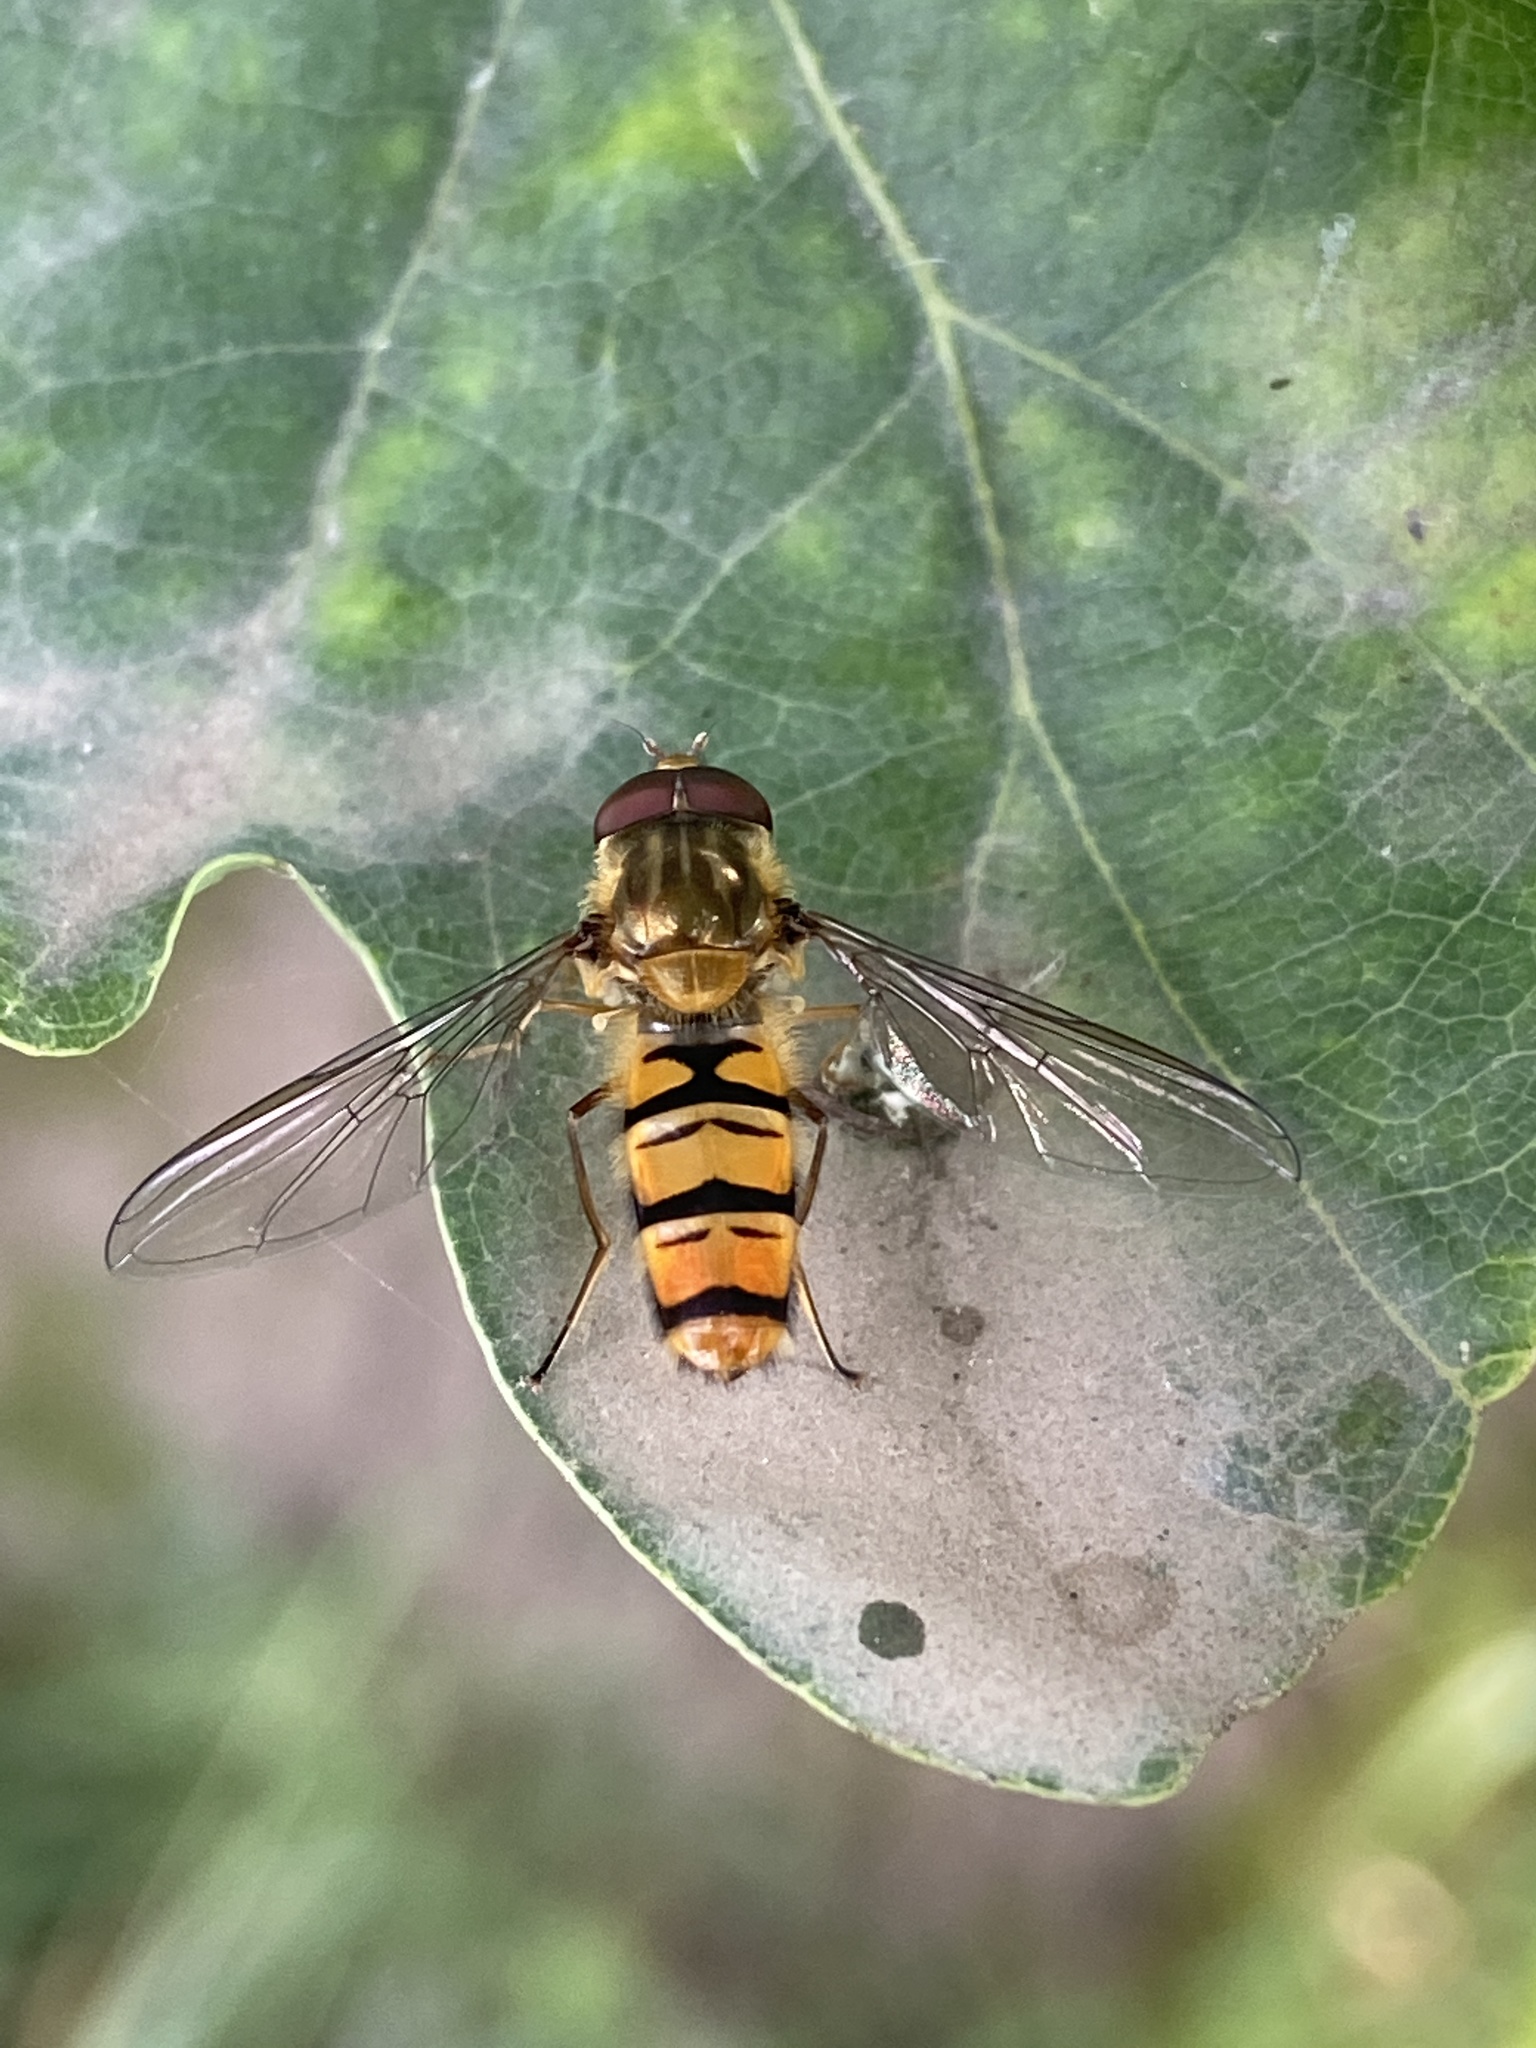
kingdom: Animalia
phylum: Arthropoda
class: Insecta
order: Diptera
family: Syrphidae
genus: Episyrphus
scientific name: Episyrphus balteatus
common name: Marmalade hoverfly
